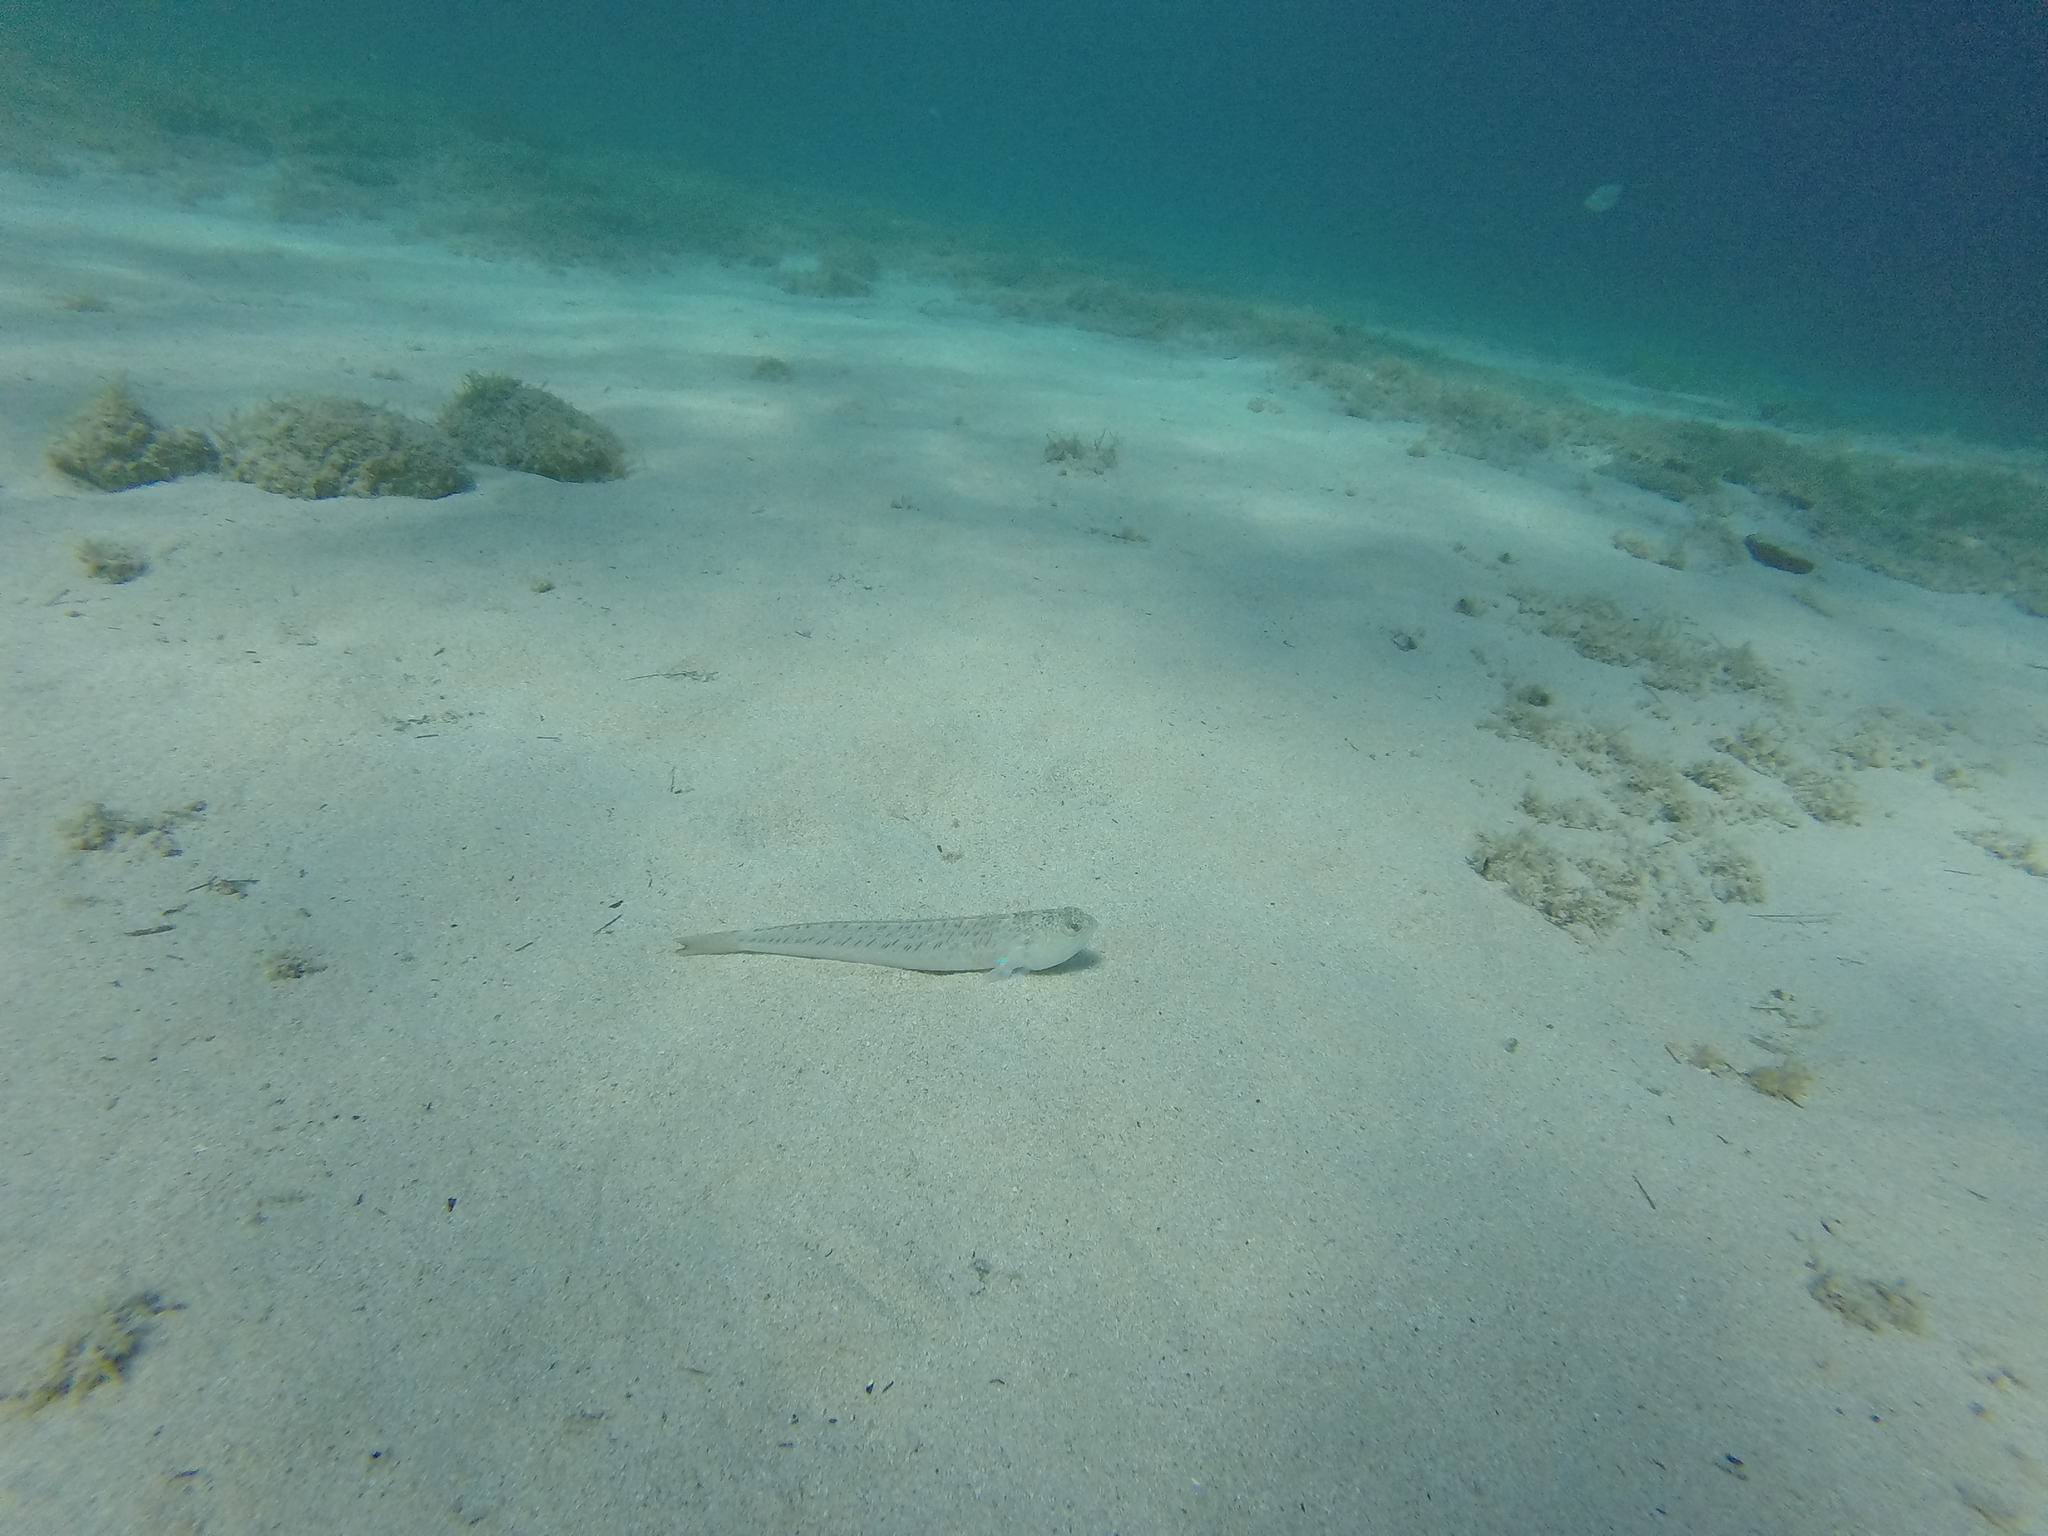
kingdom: Animalia
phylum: Chordata
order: Perciformes
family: Trachinidae
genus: Trachinus
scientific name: Trachinus draco
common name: Greater weever
